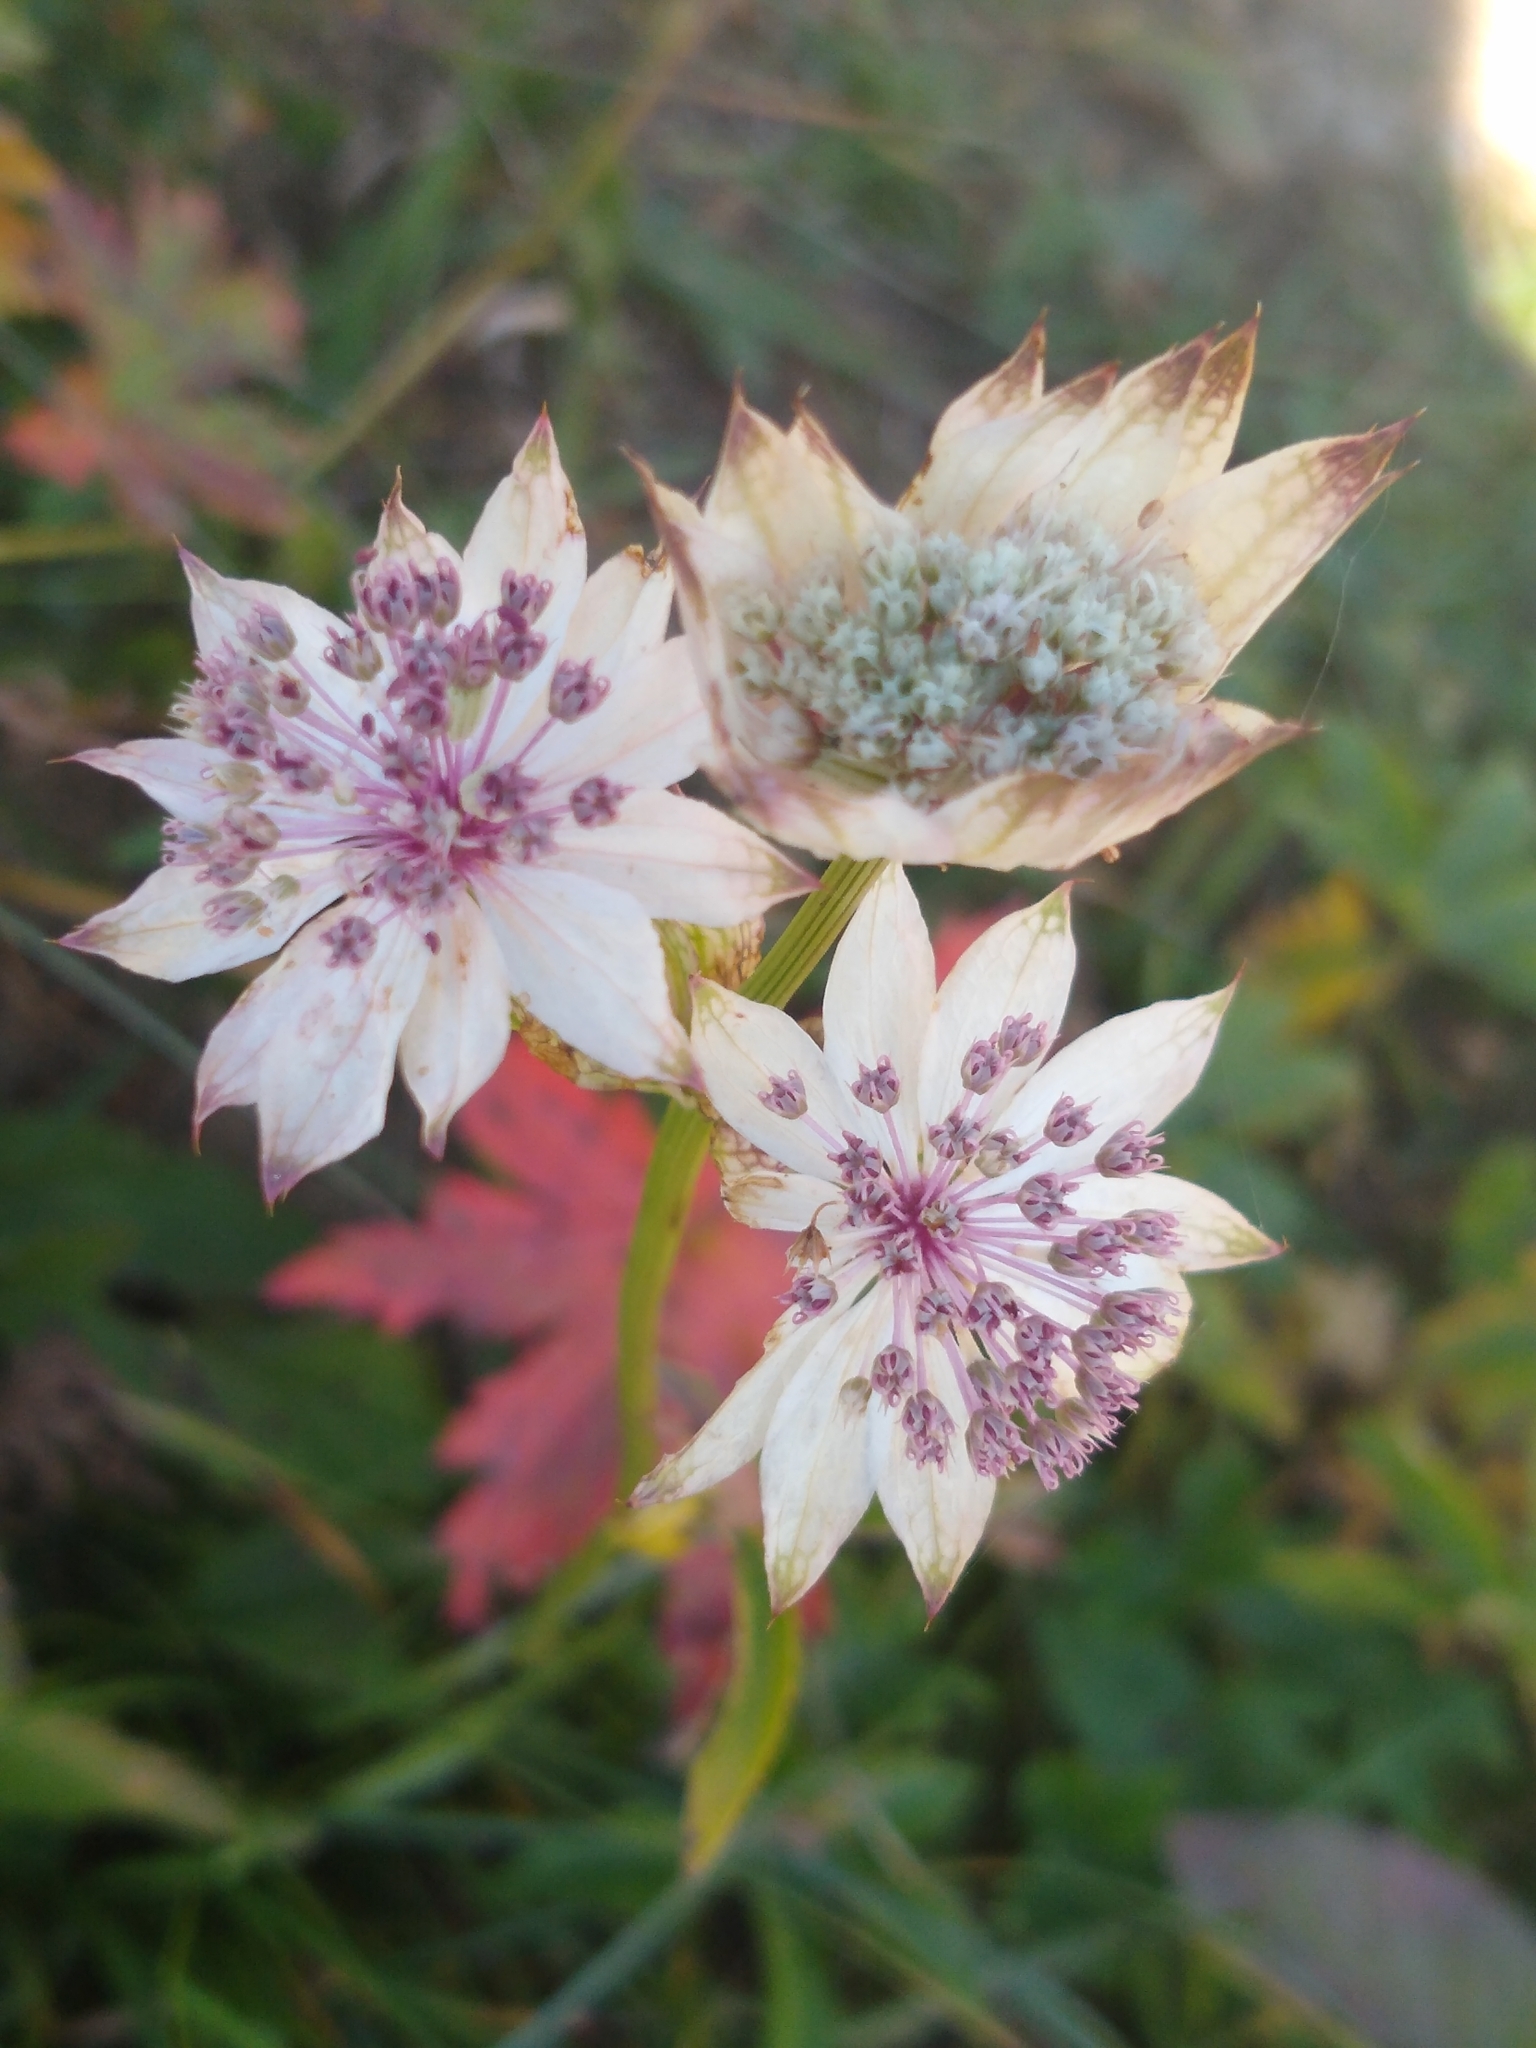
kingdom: Plantae
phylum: Tracheophyta
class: Magnoliopsida
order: Apiales
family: Apiaceae
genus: Astrantia
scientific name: Astrantia major
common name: Greater masterwort
